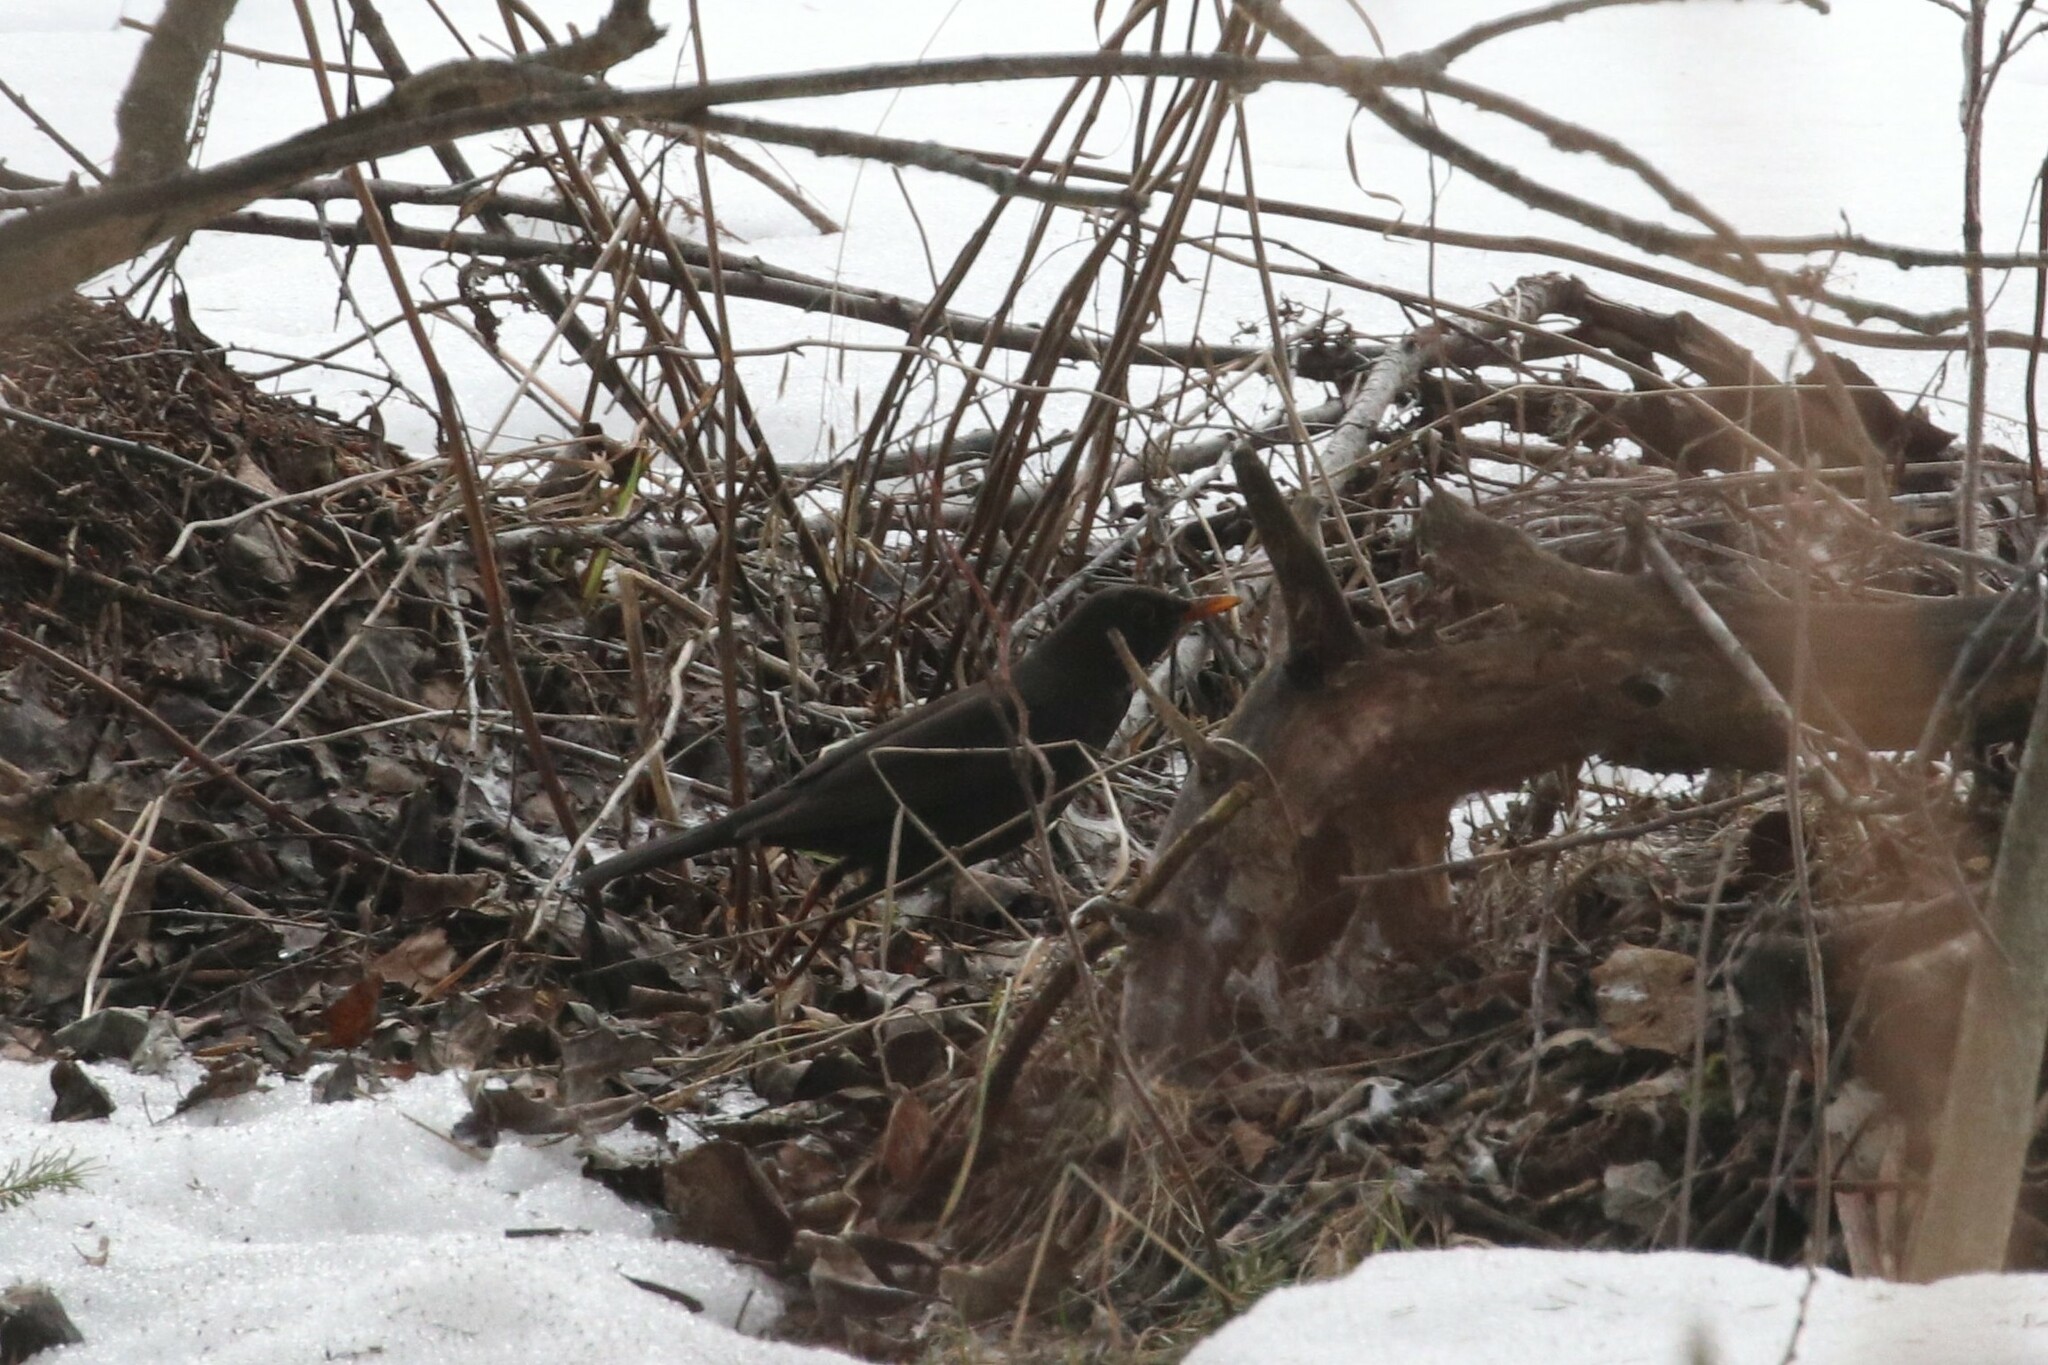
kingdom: Animalia
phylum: Chordata
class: Aves
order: Passeriformes
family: Turdidae
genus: Turdus
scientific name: Turdus merula
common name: Common blackbird
